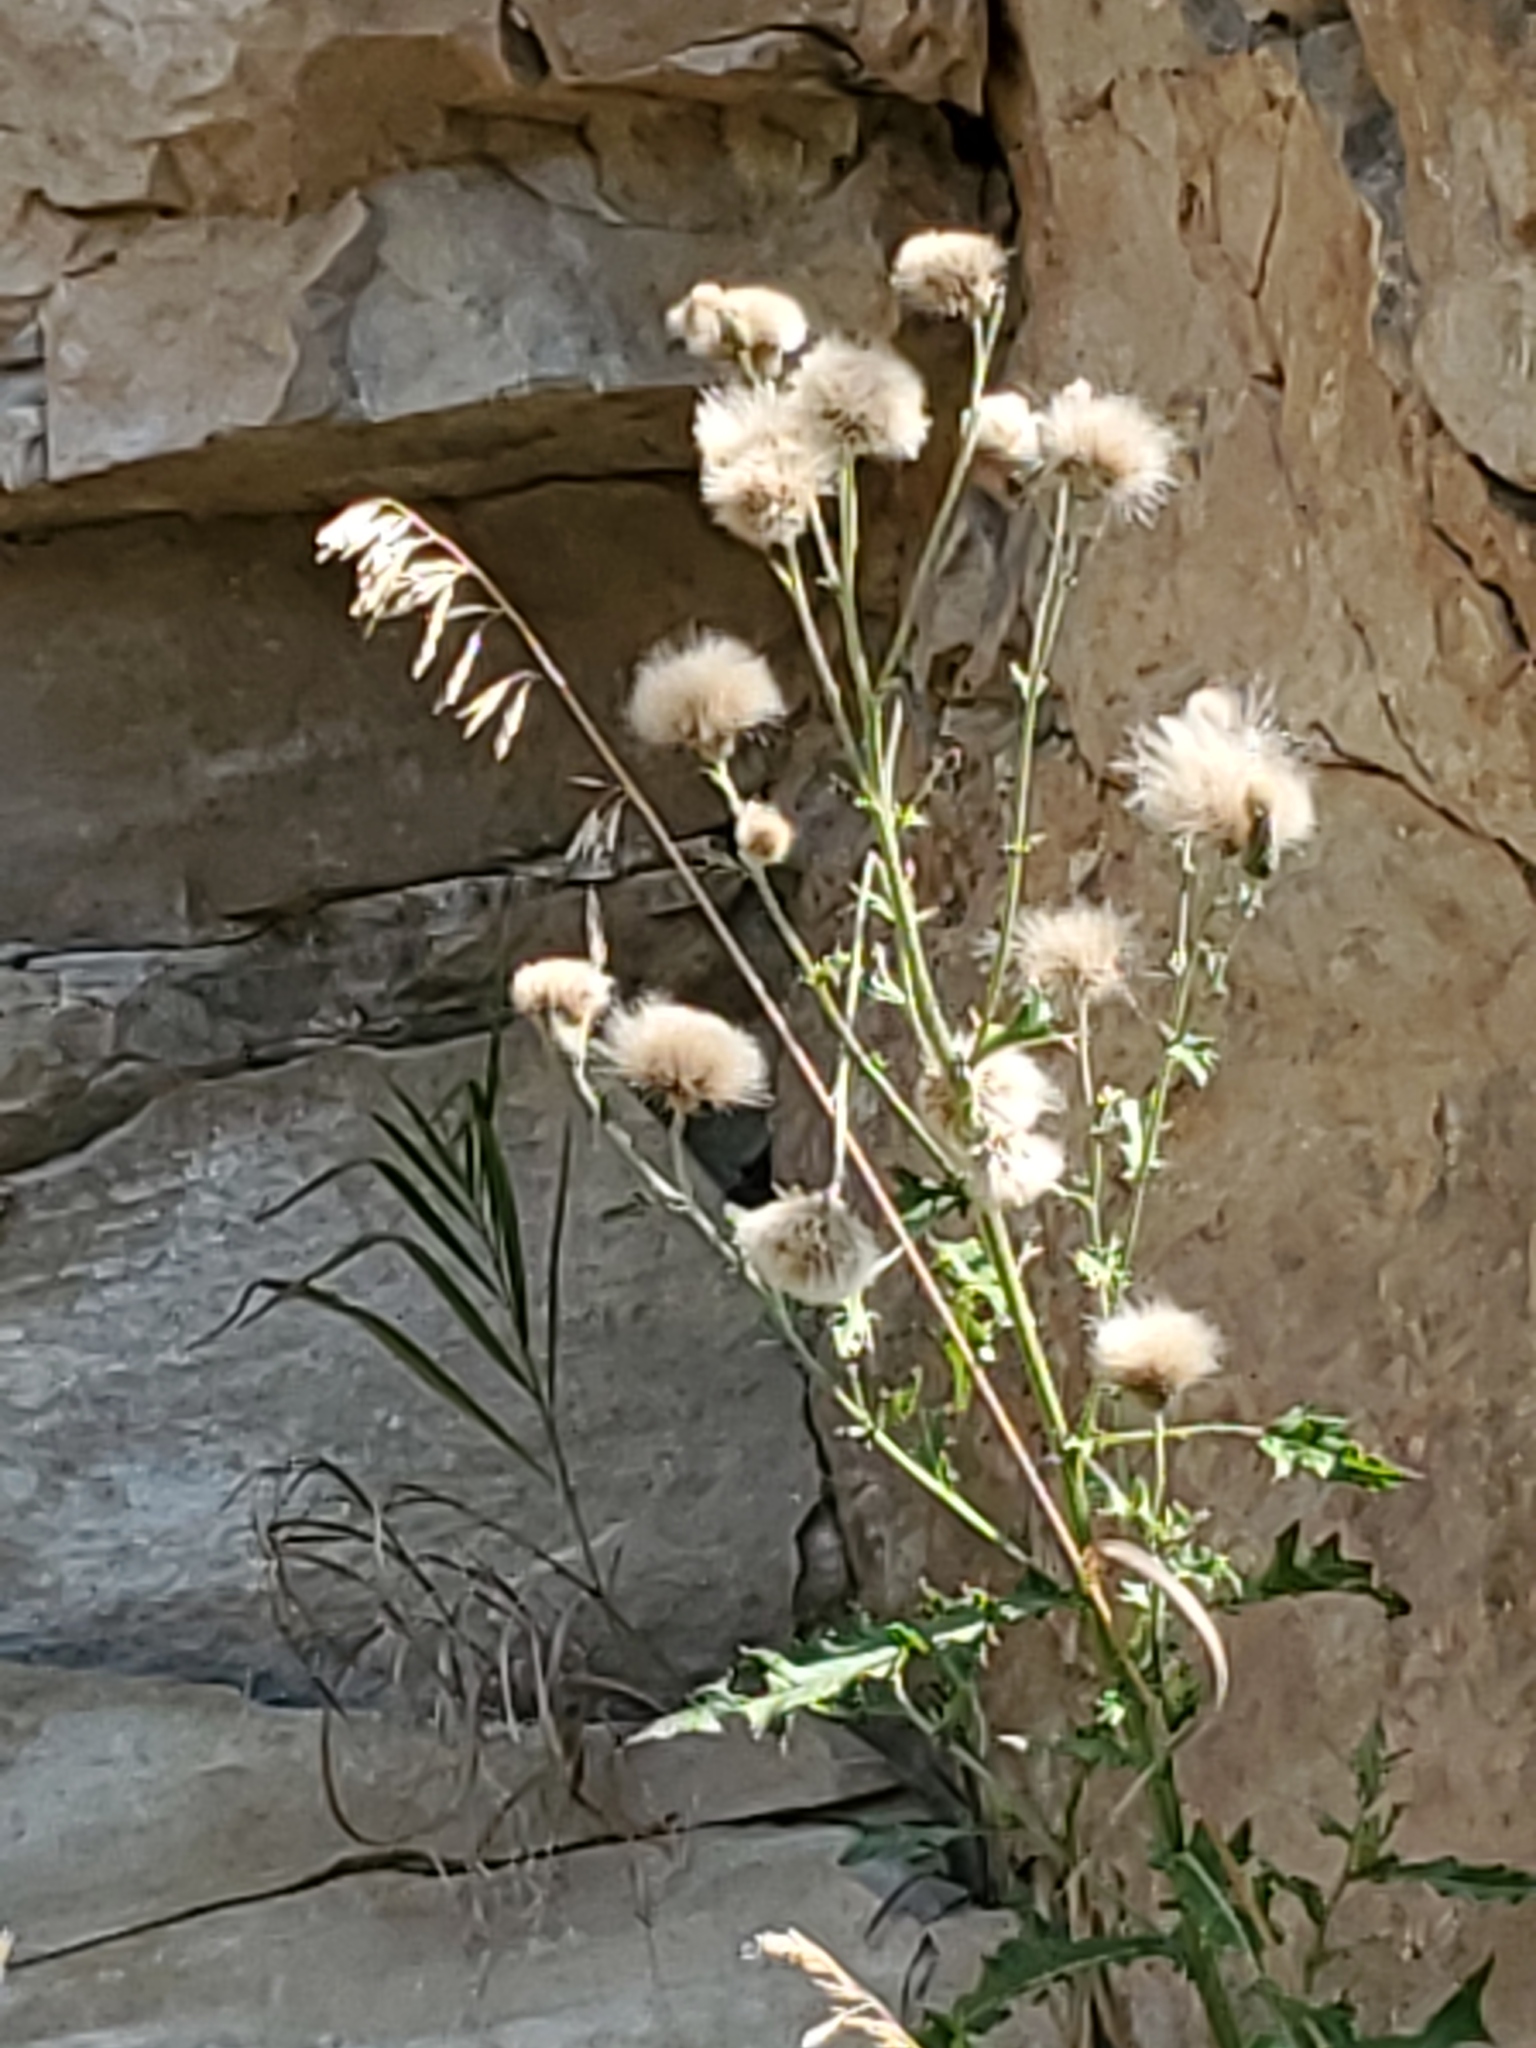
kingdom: Plantae
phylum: Tracheophyta
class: Magnoliopsida
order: Asterales
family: Asteraceae
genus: Cirsium
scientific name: Cirsium arvense
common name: Creeping thistle
